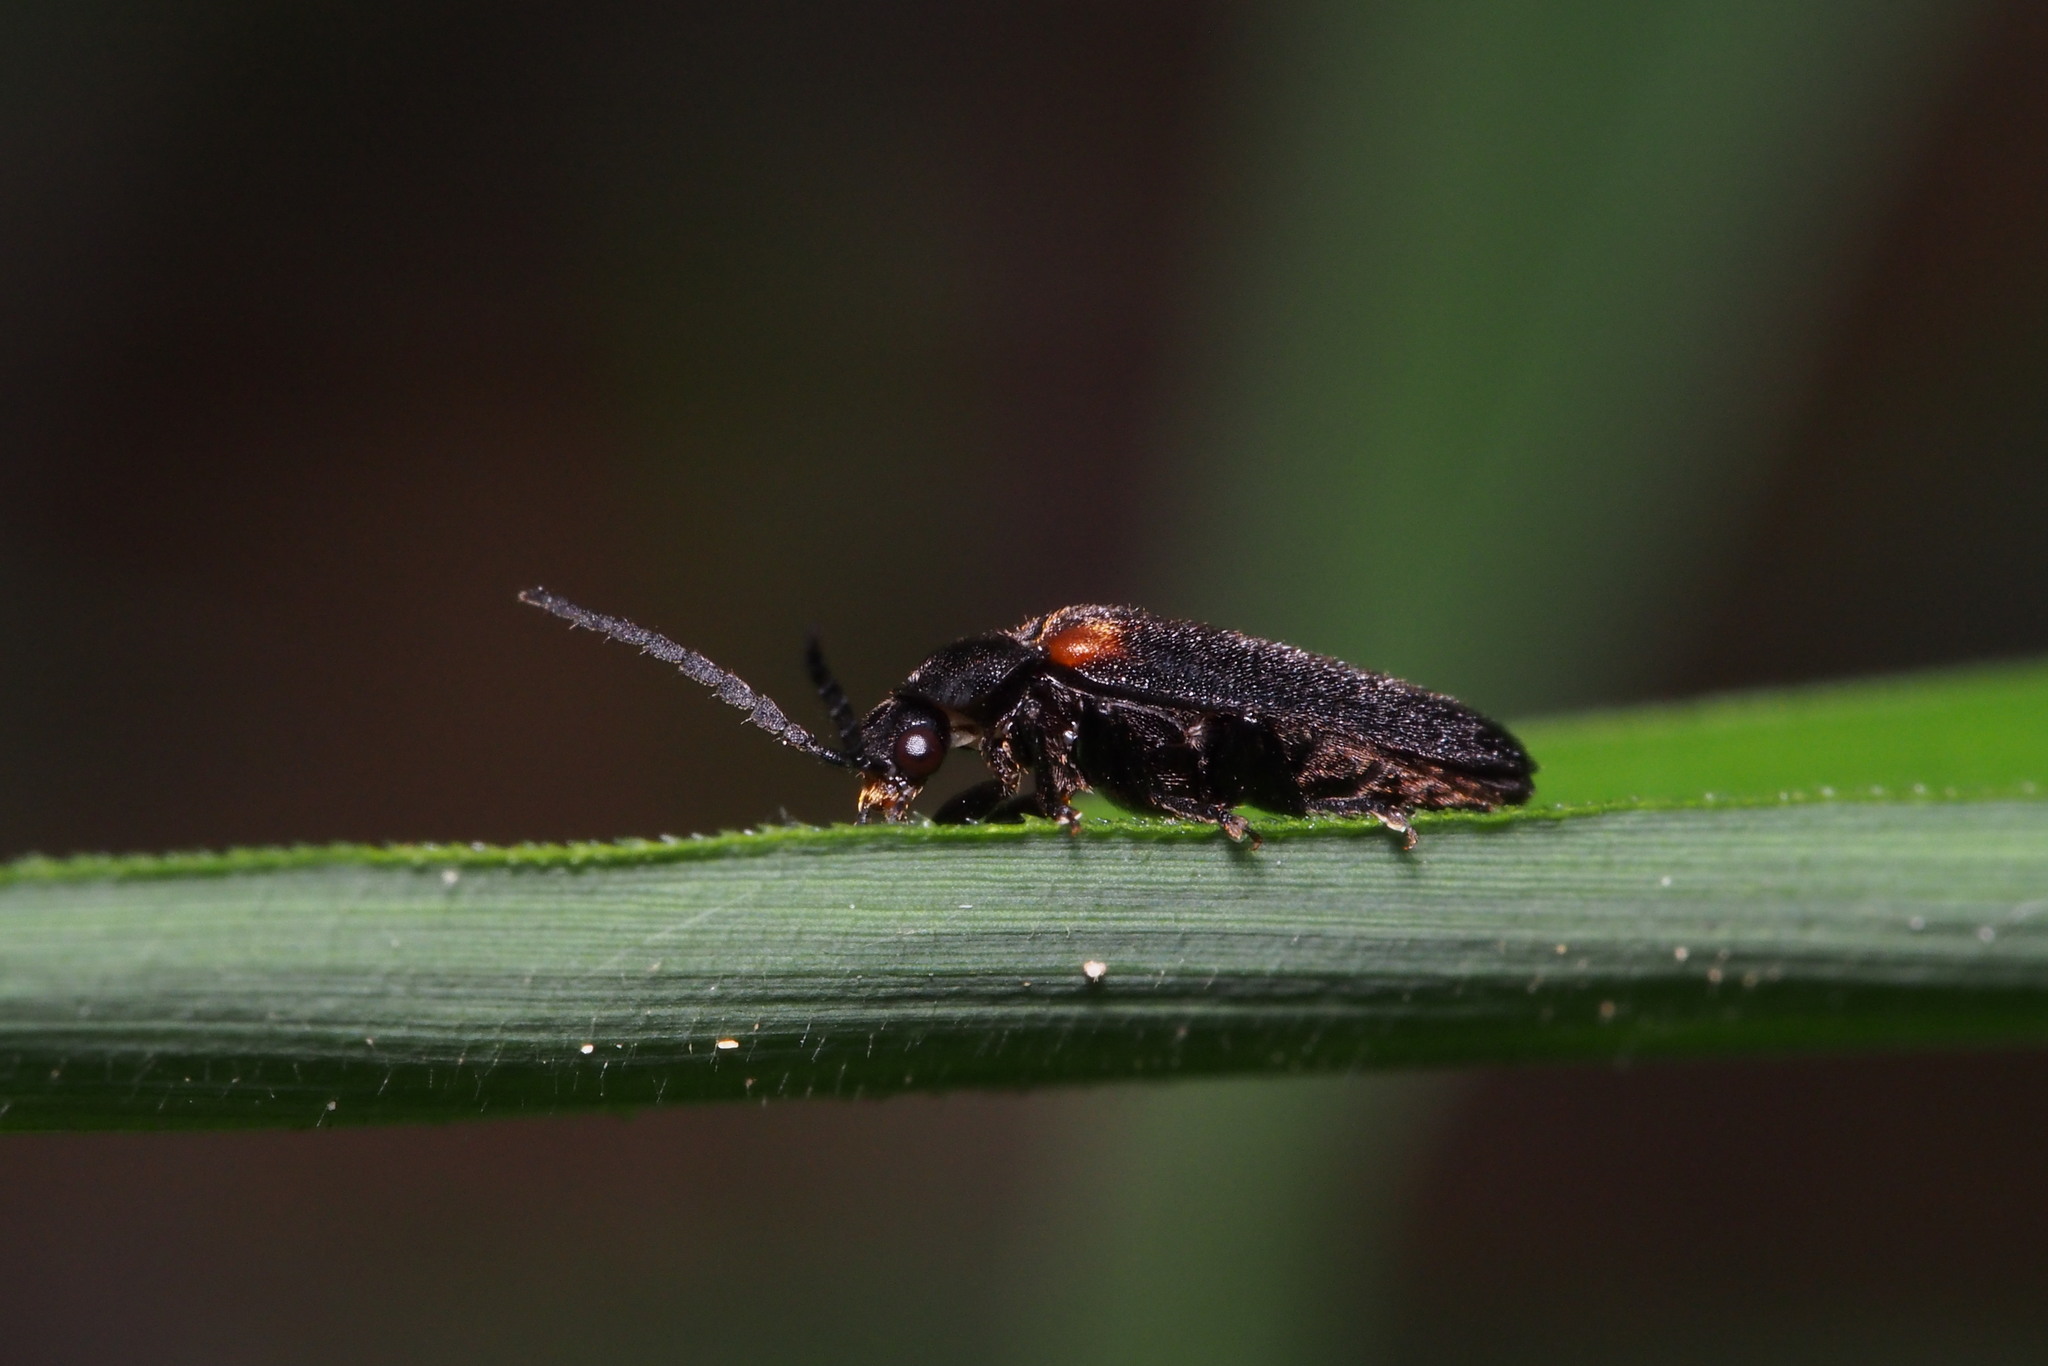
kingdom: Animalia
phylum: Arthropoda
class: Insecta
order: Coleoptera
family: Lampyridae
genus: Drilaster
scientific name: Drilaster axillaris
